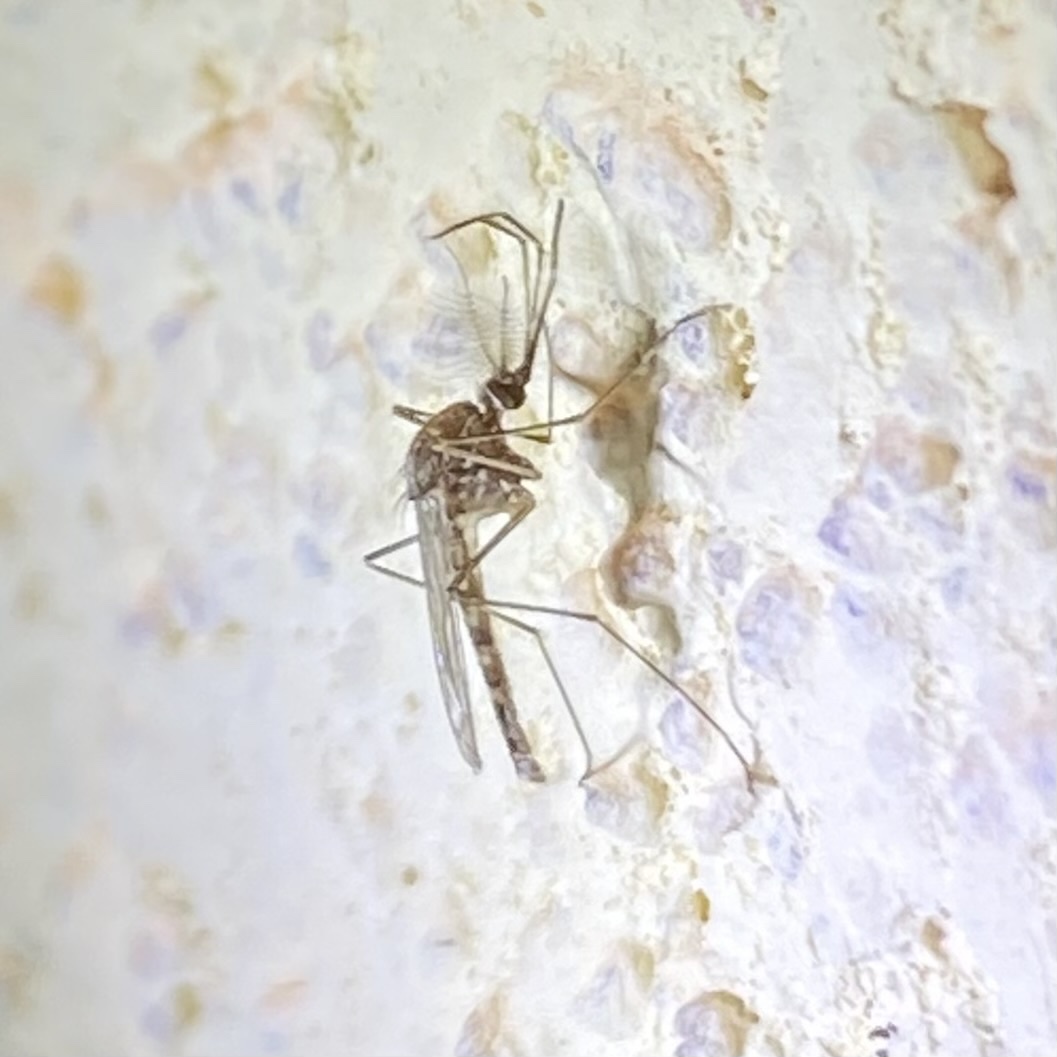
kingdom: Animalia
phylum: Arthropoda
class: Insecta
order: Diptera
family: Culicidae
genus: Culex
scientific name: Culex
